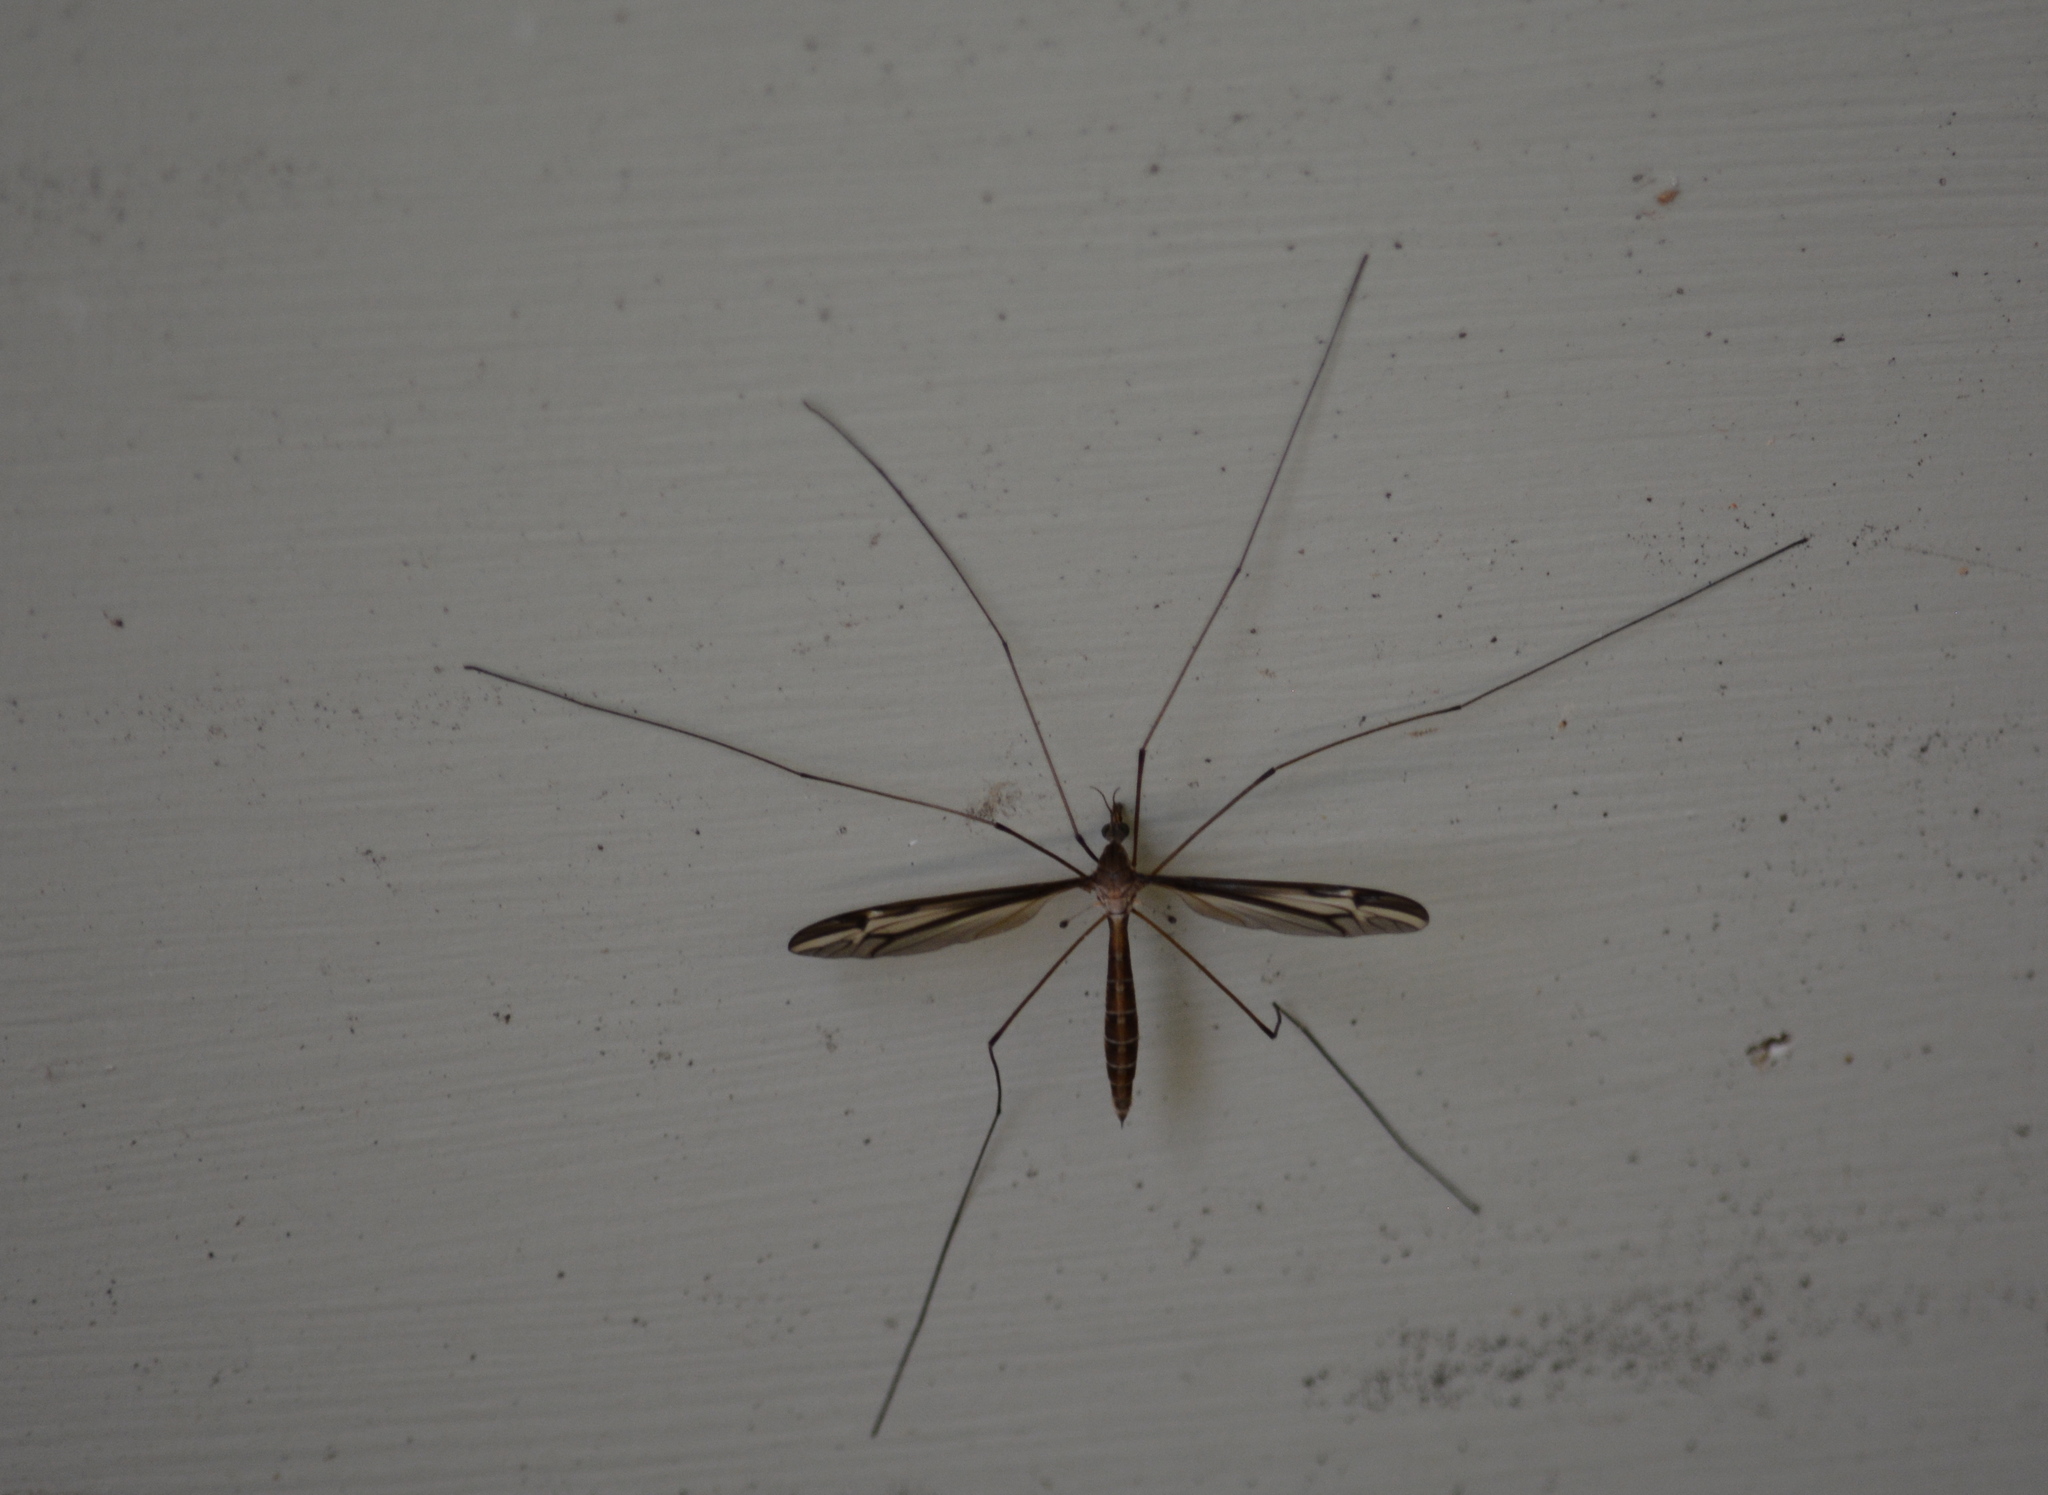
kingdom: Animalia
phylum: Arthropoda
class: Insecta
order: Diptera
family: Tipulidae
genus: Tipula
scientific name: Tipula furca
